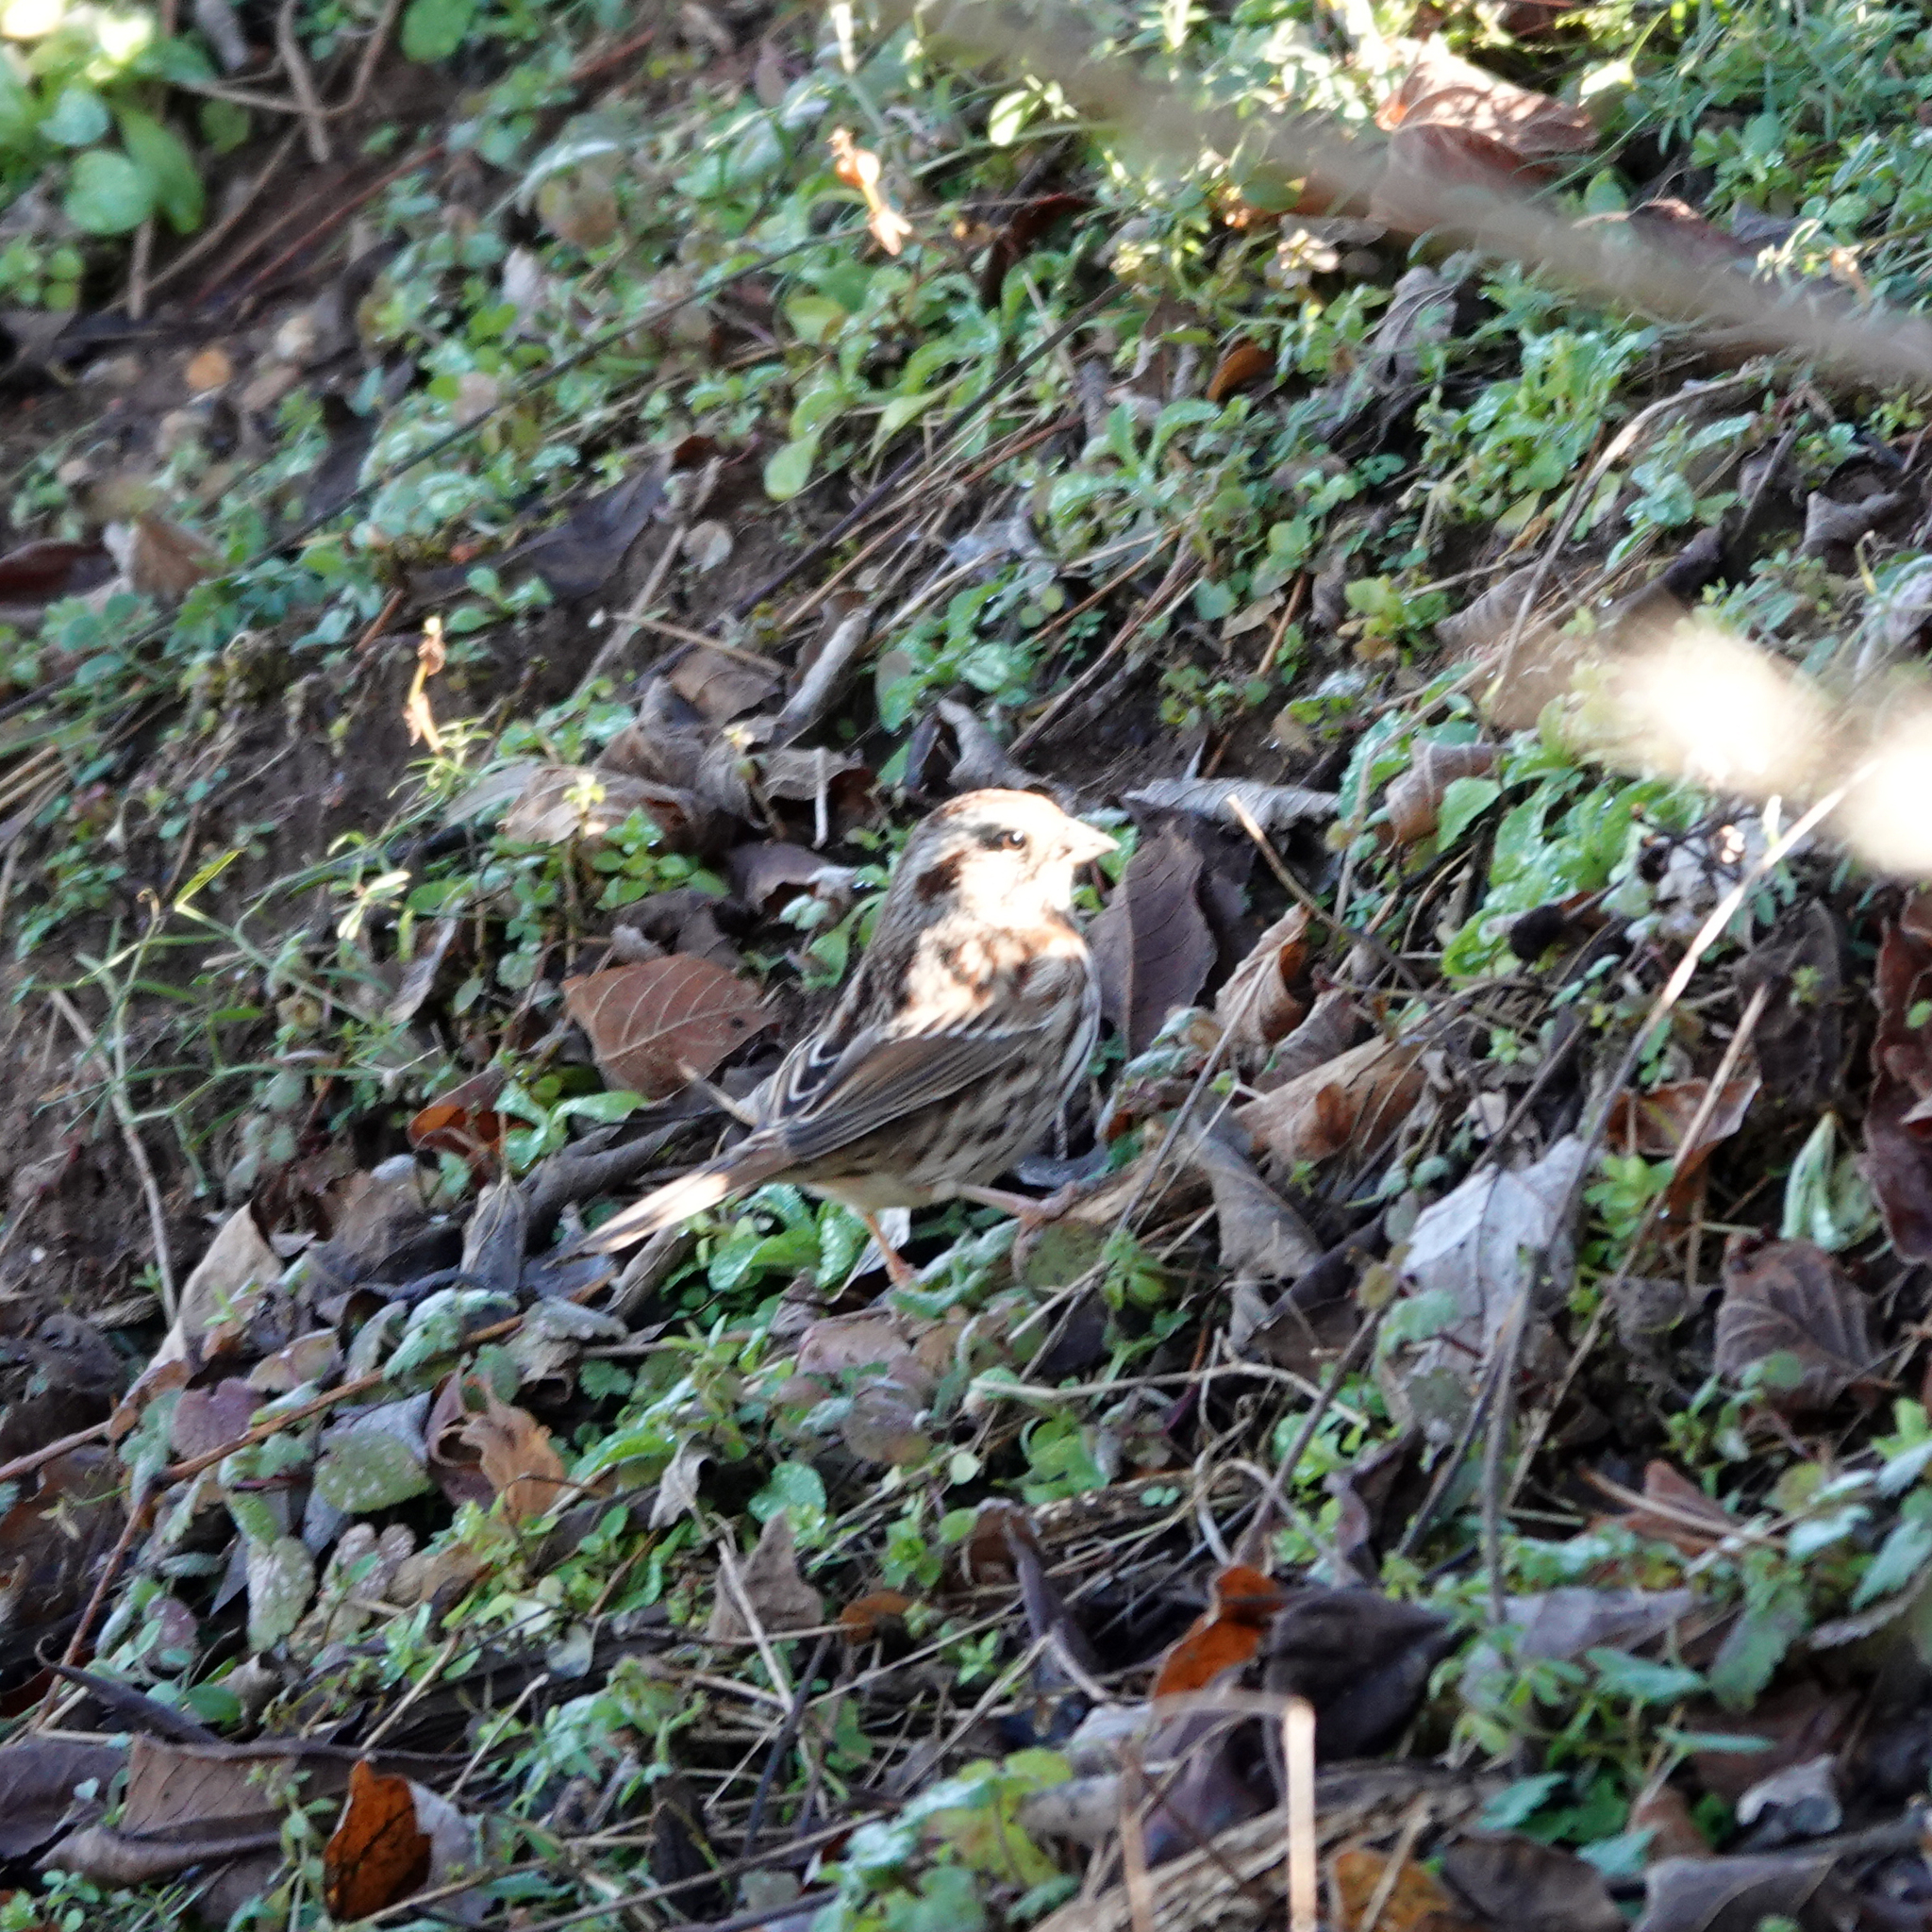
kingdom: Animalia
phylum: Chordata
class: Aves
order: Passeriformes
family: Passerellidae
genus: Melospiza
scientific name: Melospiza melodia
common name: Song sparrow
